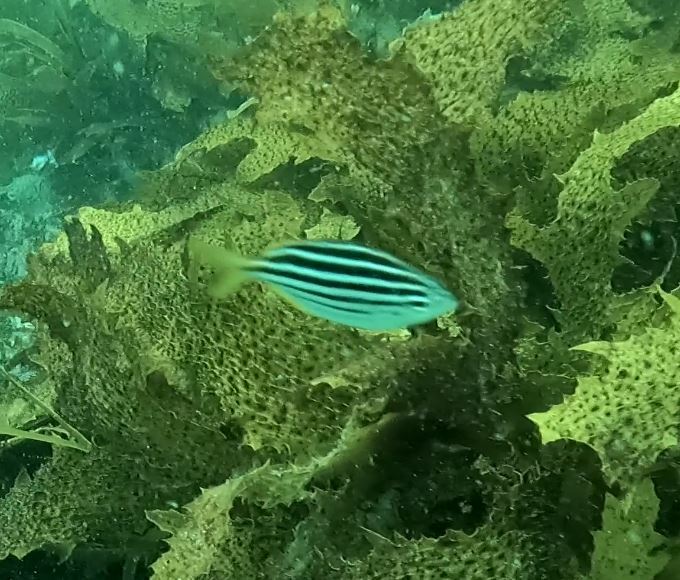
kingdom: Animalia
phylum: Chordata
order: Perciformes
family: Kyphosidae
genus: Atypichthys
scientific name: Atypichthys strigatus
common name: Australian mado
